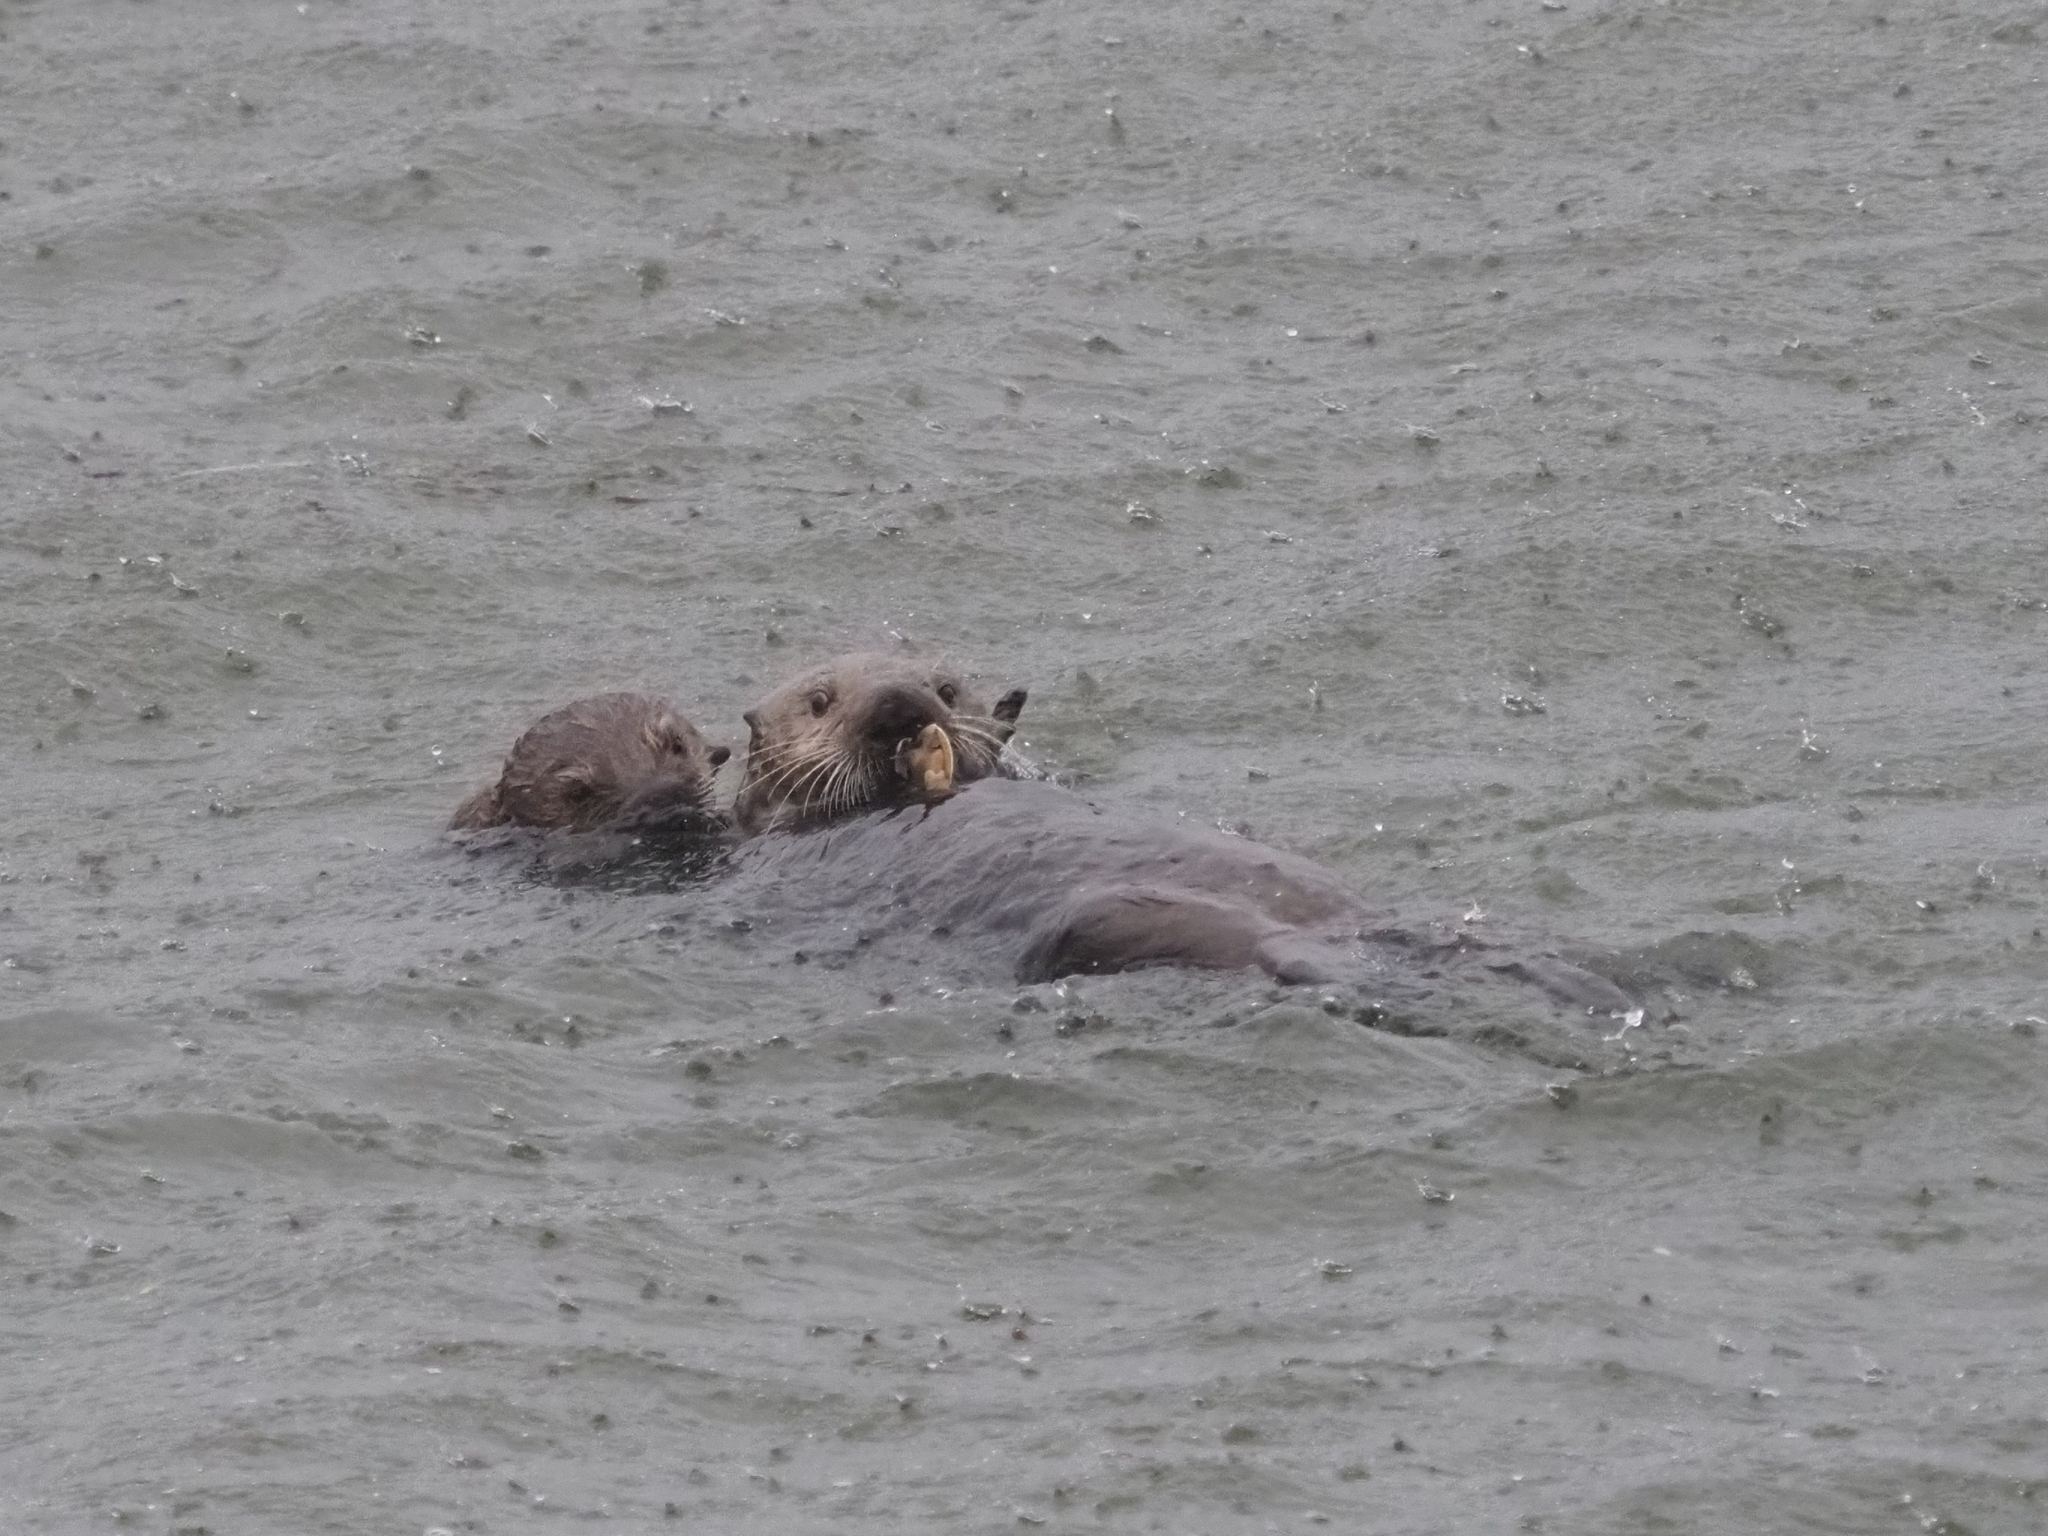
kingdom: Animalia
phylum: Chordata
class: Mammalia
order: Carnivora
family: Mustelidae
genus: Enhydra
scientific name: Enhydra lutris
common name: Sea otter
